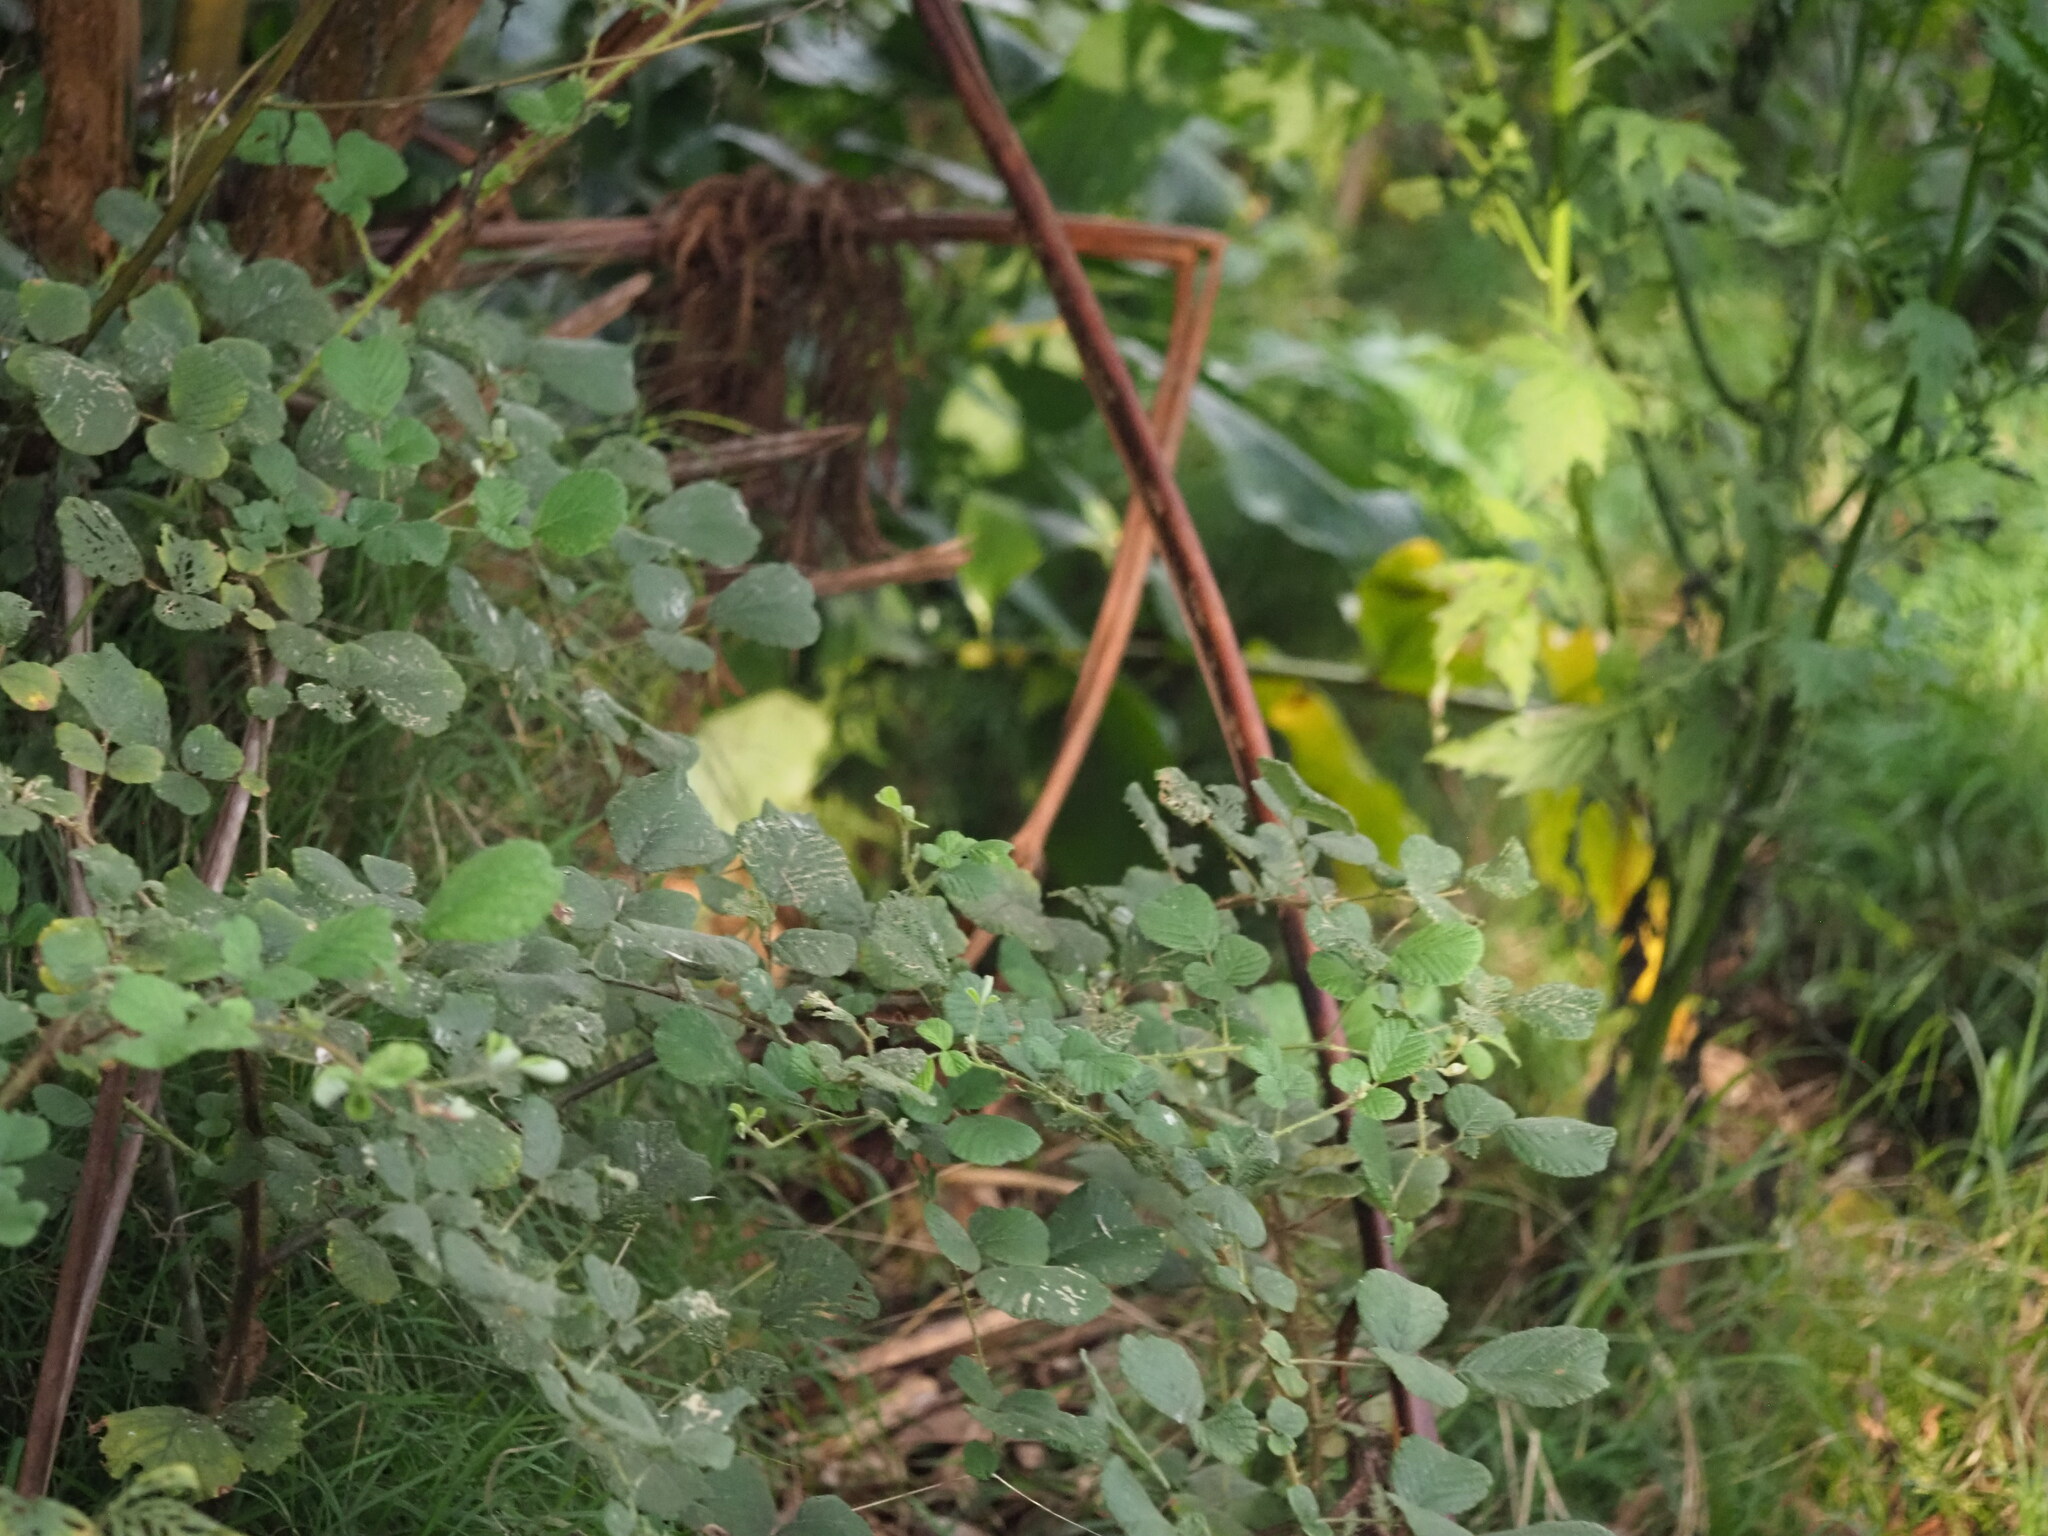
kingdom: Plantae
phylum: Tracheophyta
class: Magnoliopsida
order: Rosales
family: Rosaceae
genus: Rubus
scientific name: Rubus ellipticus
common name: Cheeseberry
